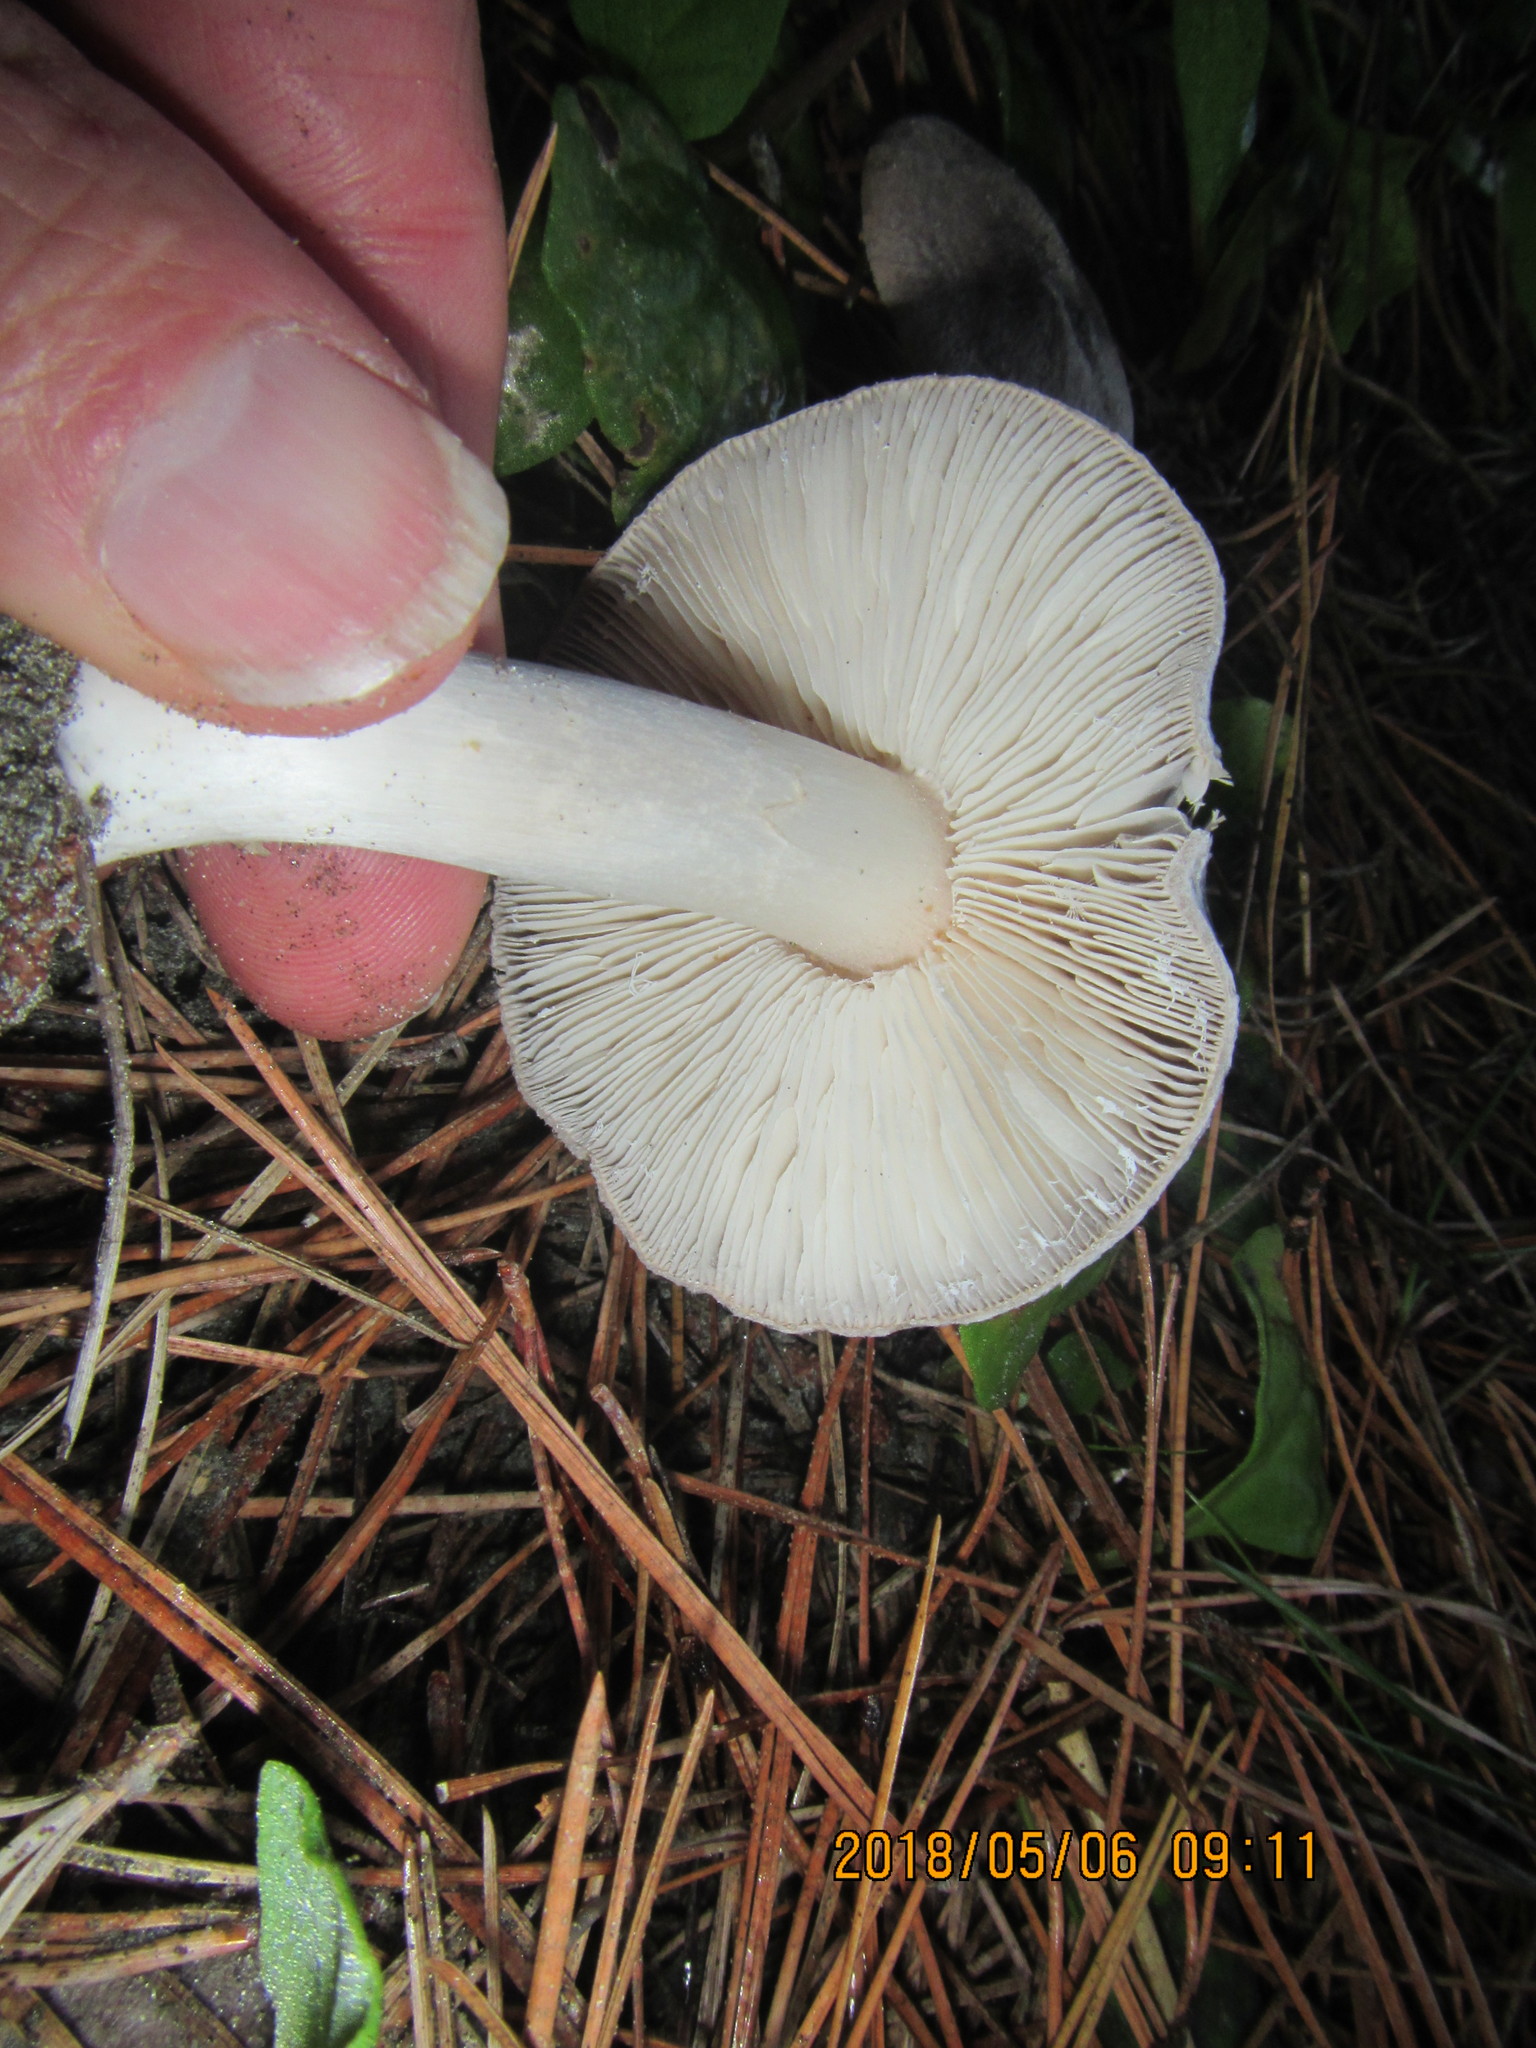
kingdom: Fungi
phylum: Basidiomycota
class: Agaricomycetes
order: Agaricales
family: Tricholomataceae
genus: Tricholoma
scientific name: Tricholoma terreum
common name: Grey knight
